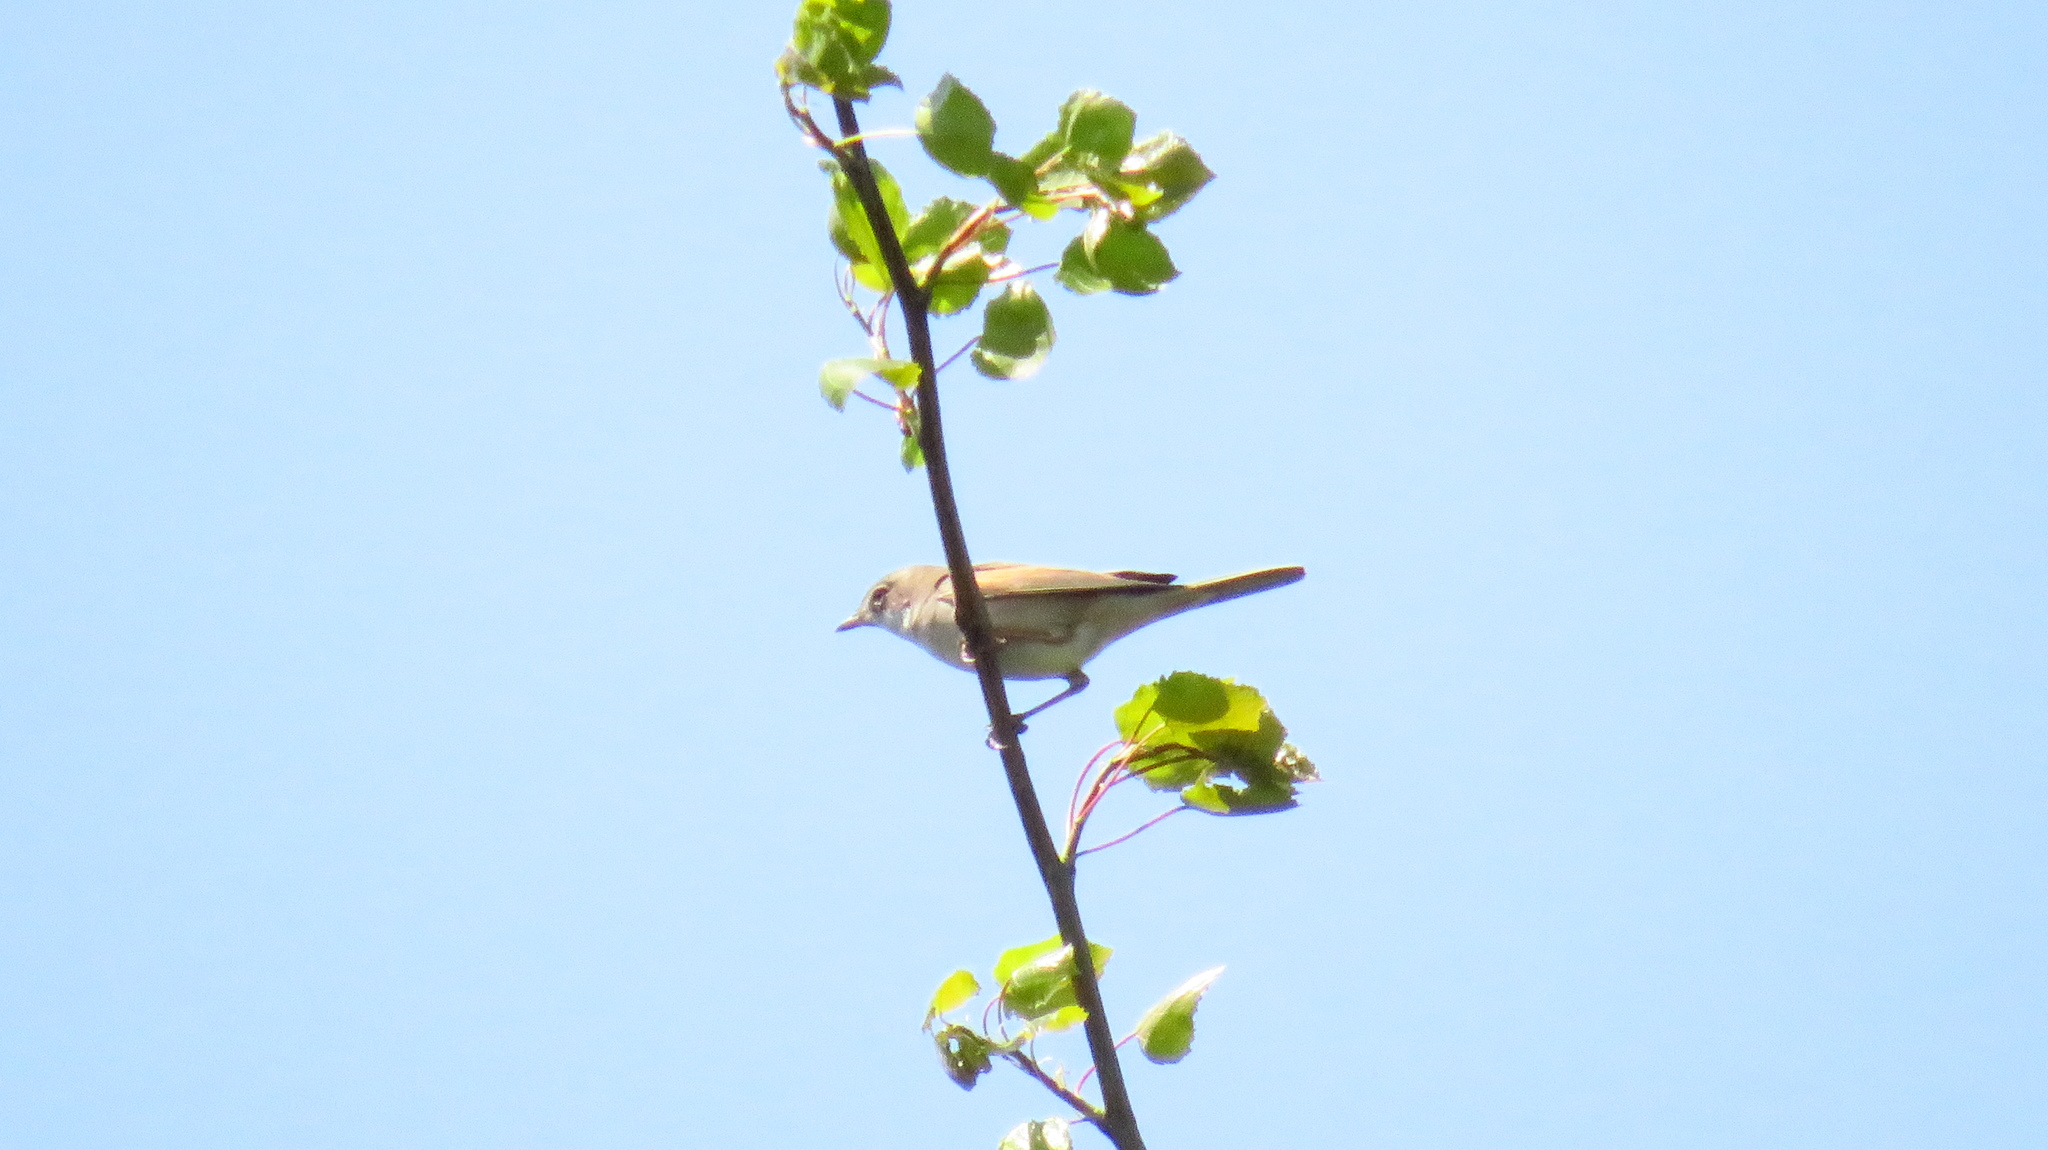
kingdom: Animalia
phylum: Chordata
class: Aves
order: Passeriformes
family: Sylviidae
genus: Sylvia
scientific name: Sylvia communis
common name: Common whitethroat
